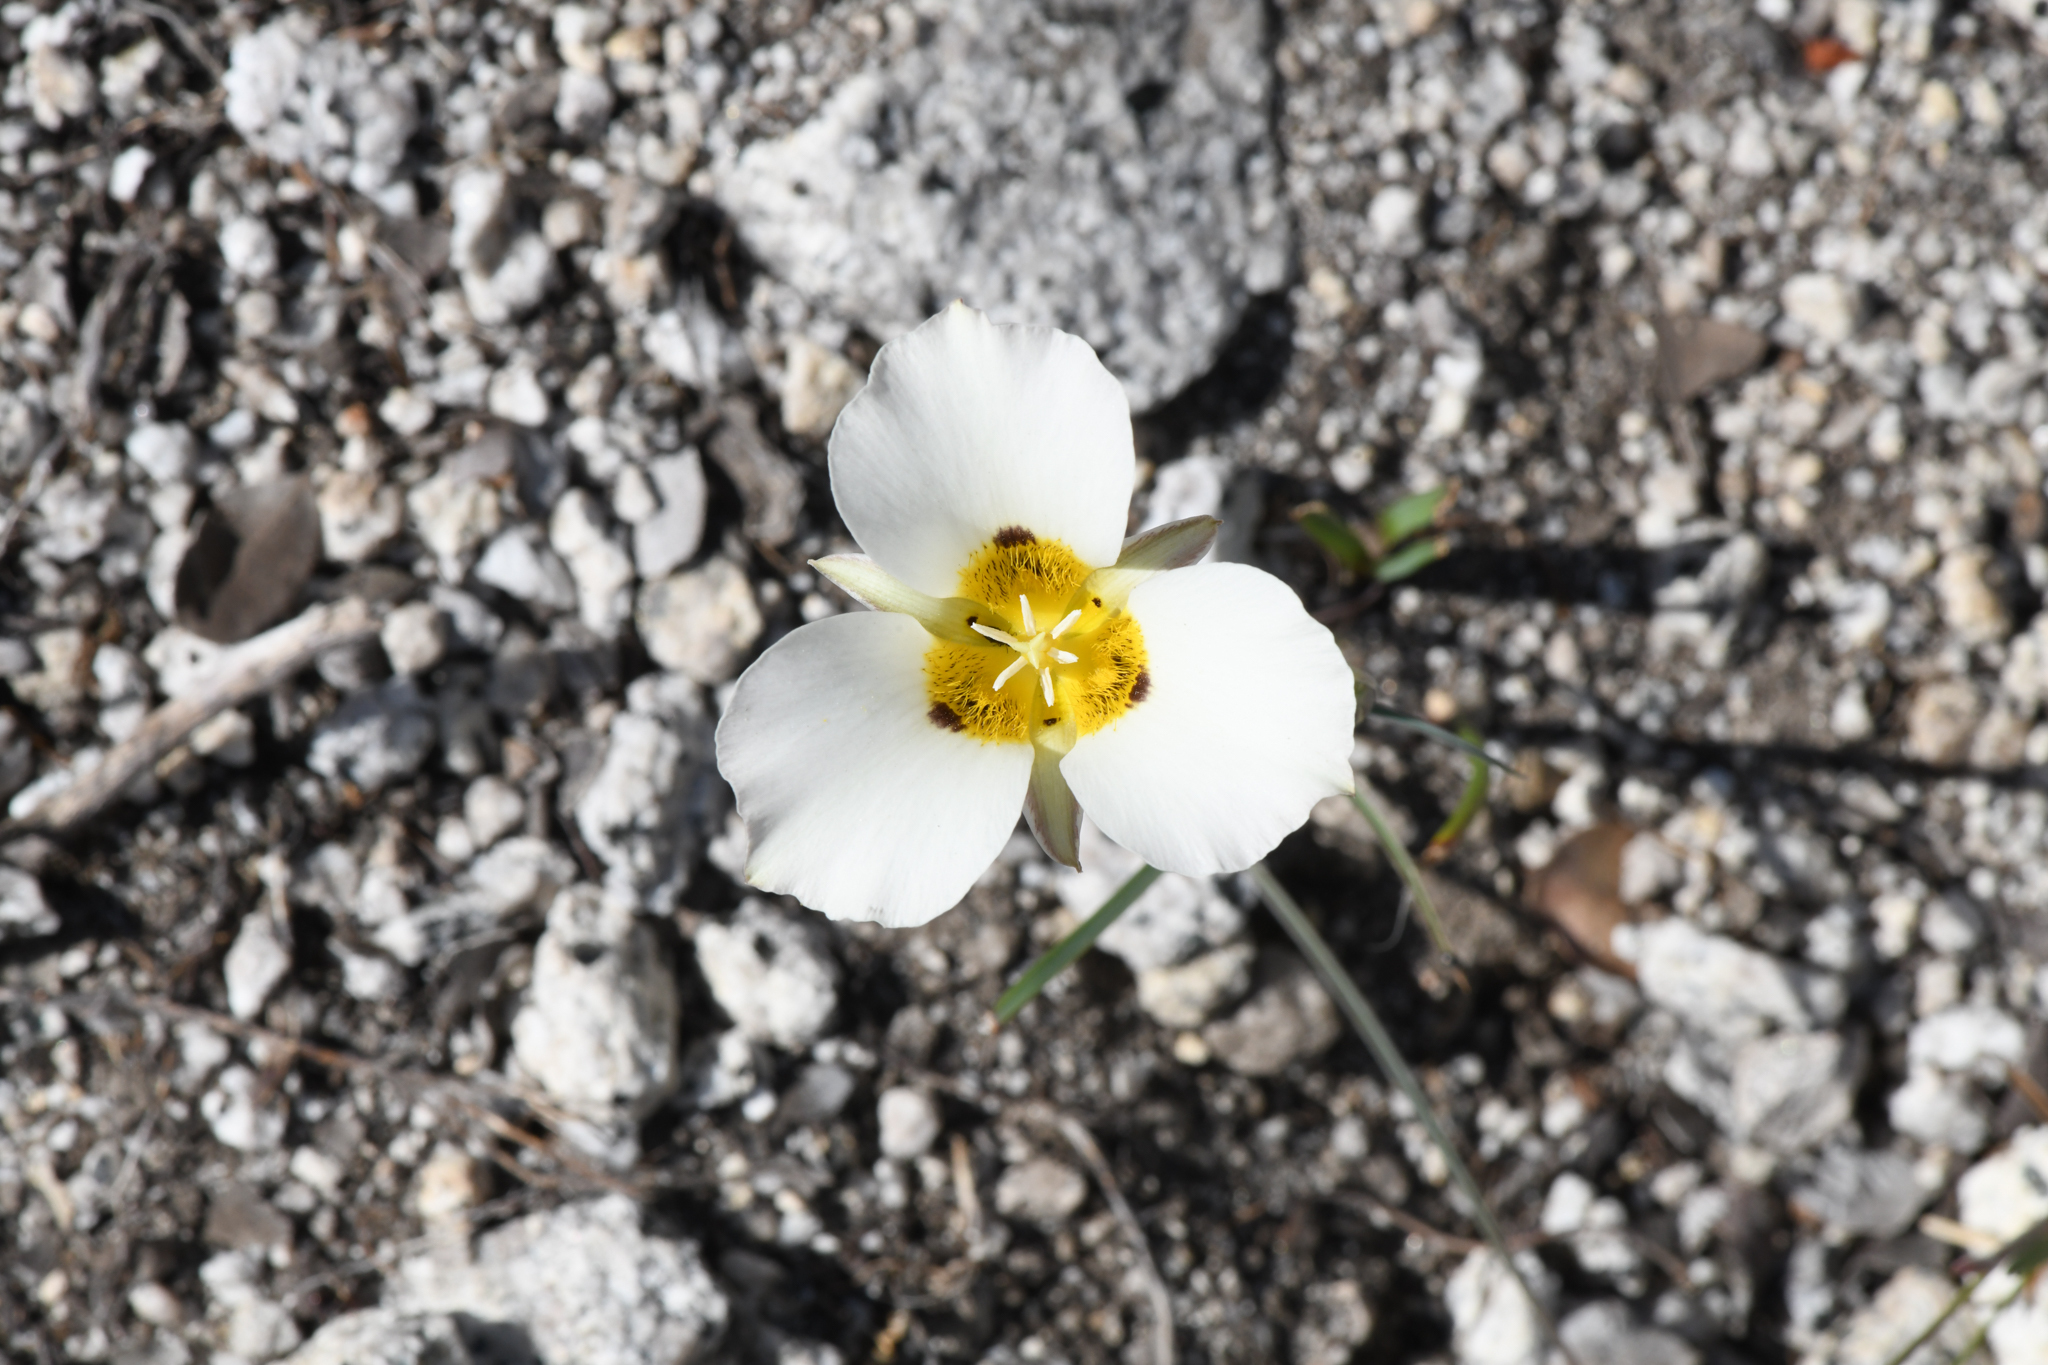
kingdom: Plantae
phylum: Tracheophyta
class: Liliopsida
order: Liliales
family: Liliaceae
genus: Calochortus
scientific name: Calochortus leichtlinii
